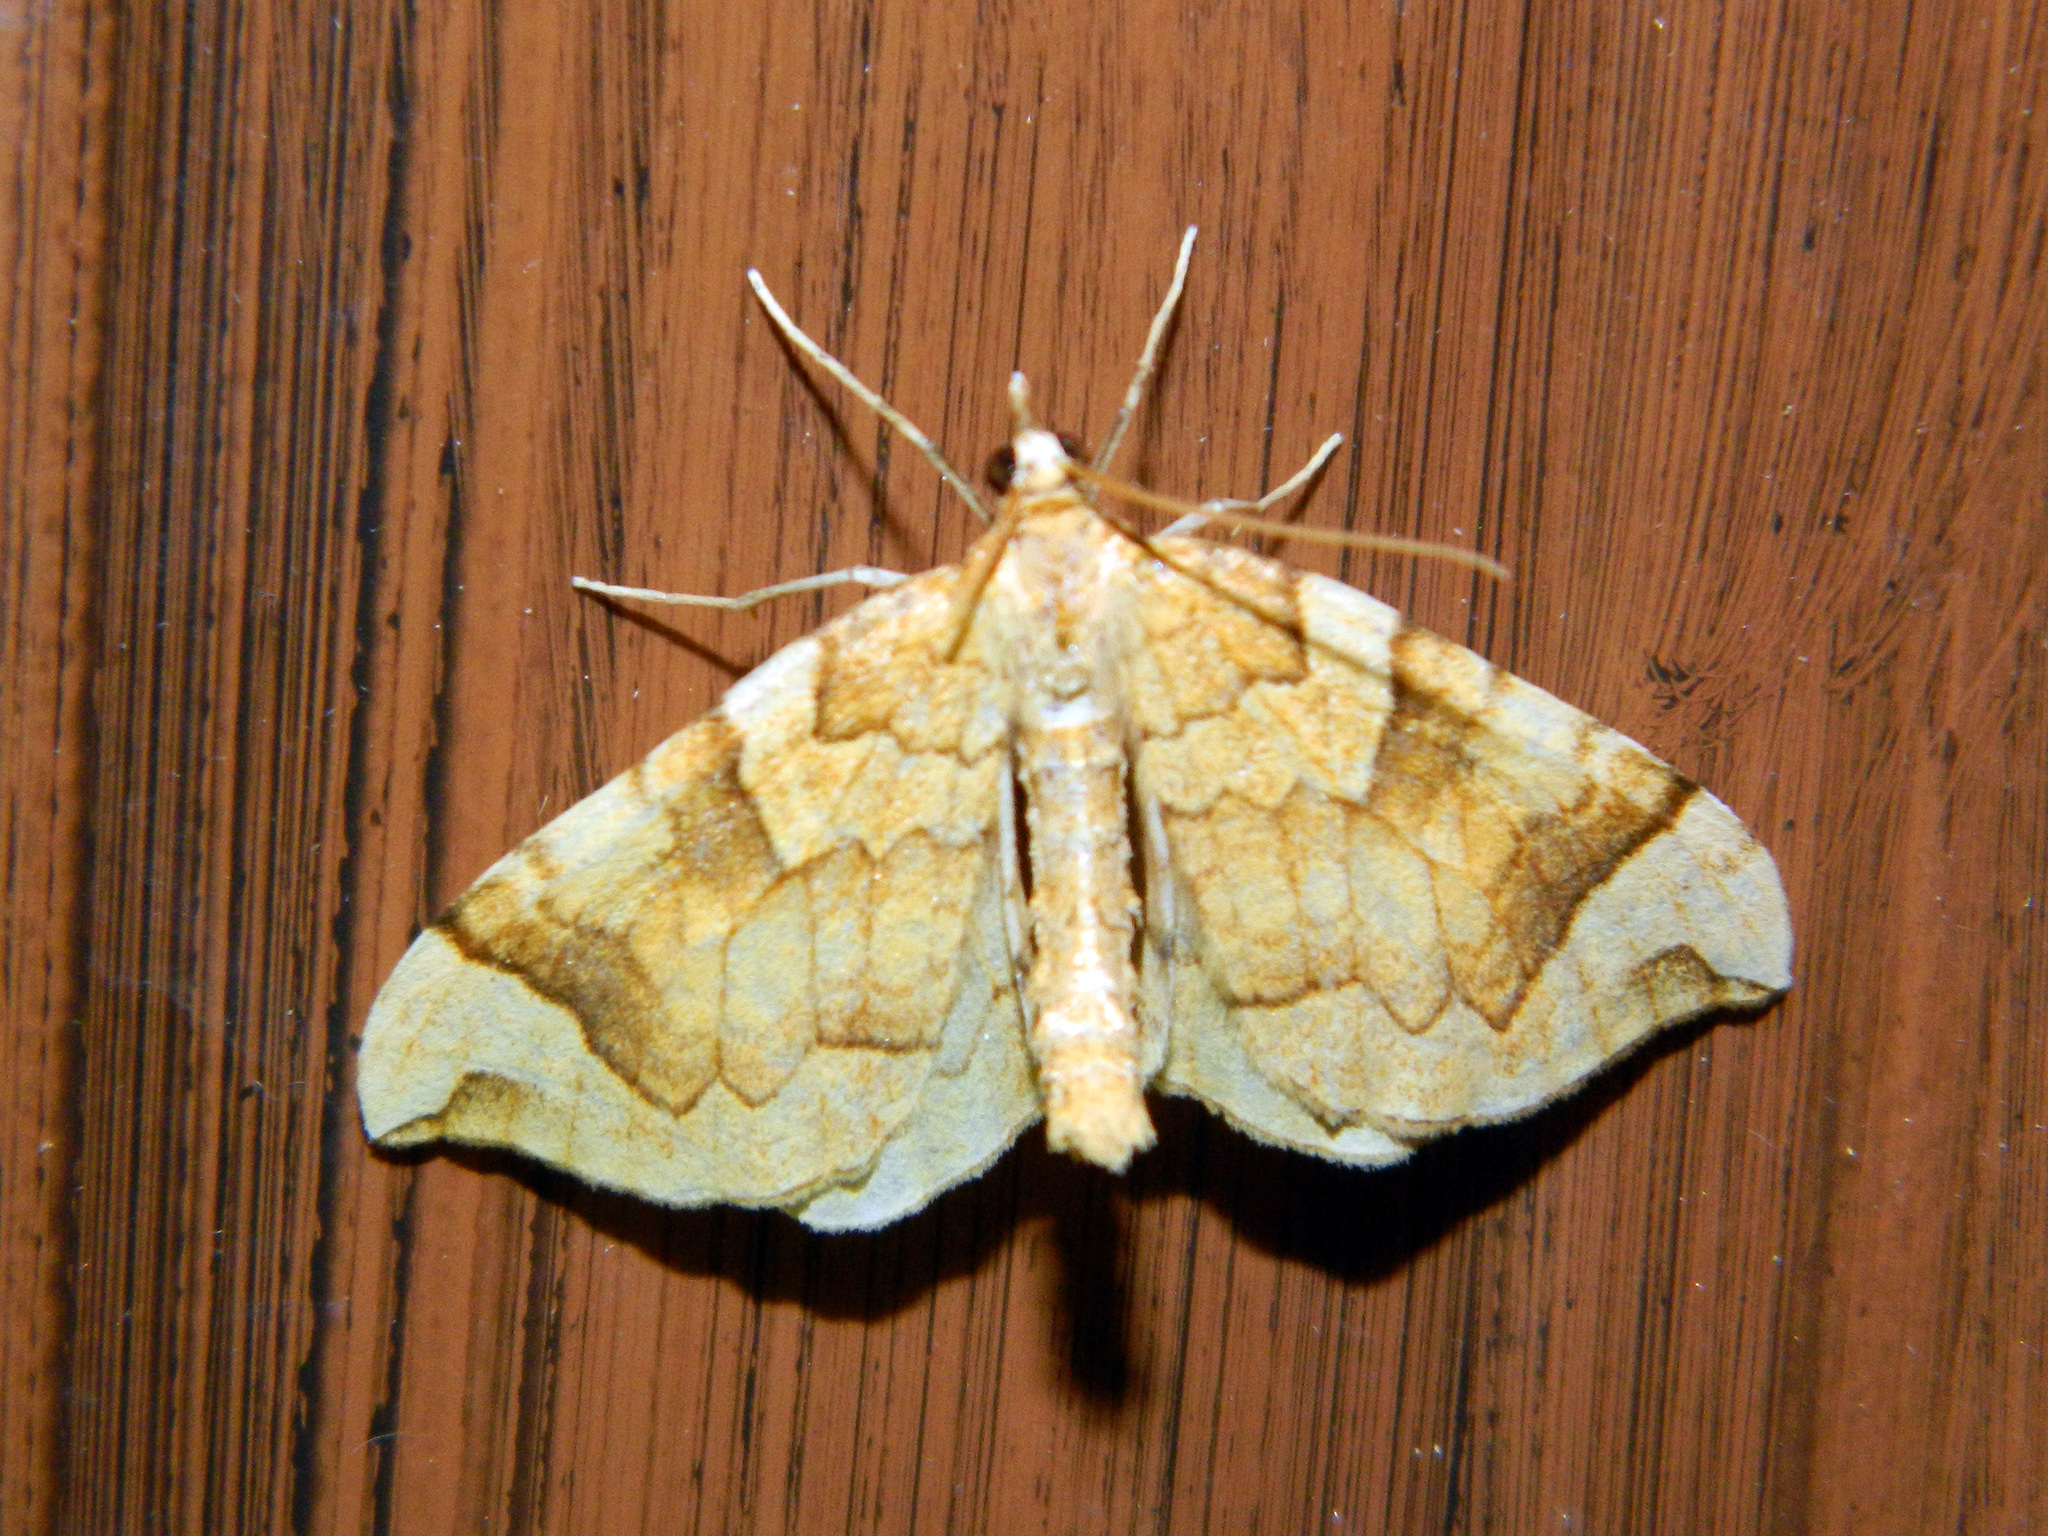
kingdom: Animalia
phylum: Arthropoda
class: Insecta
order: Lepidoptera
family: Geometridae
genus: Eulithis
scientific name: Eulithis propulsata
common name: Currant eulithis moth
